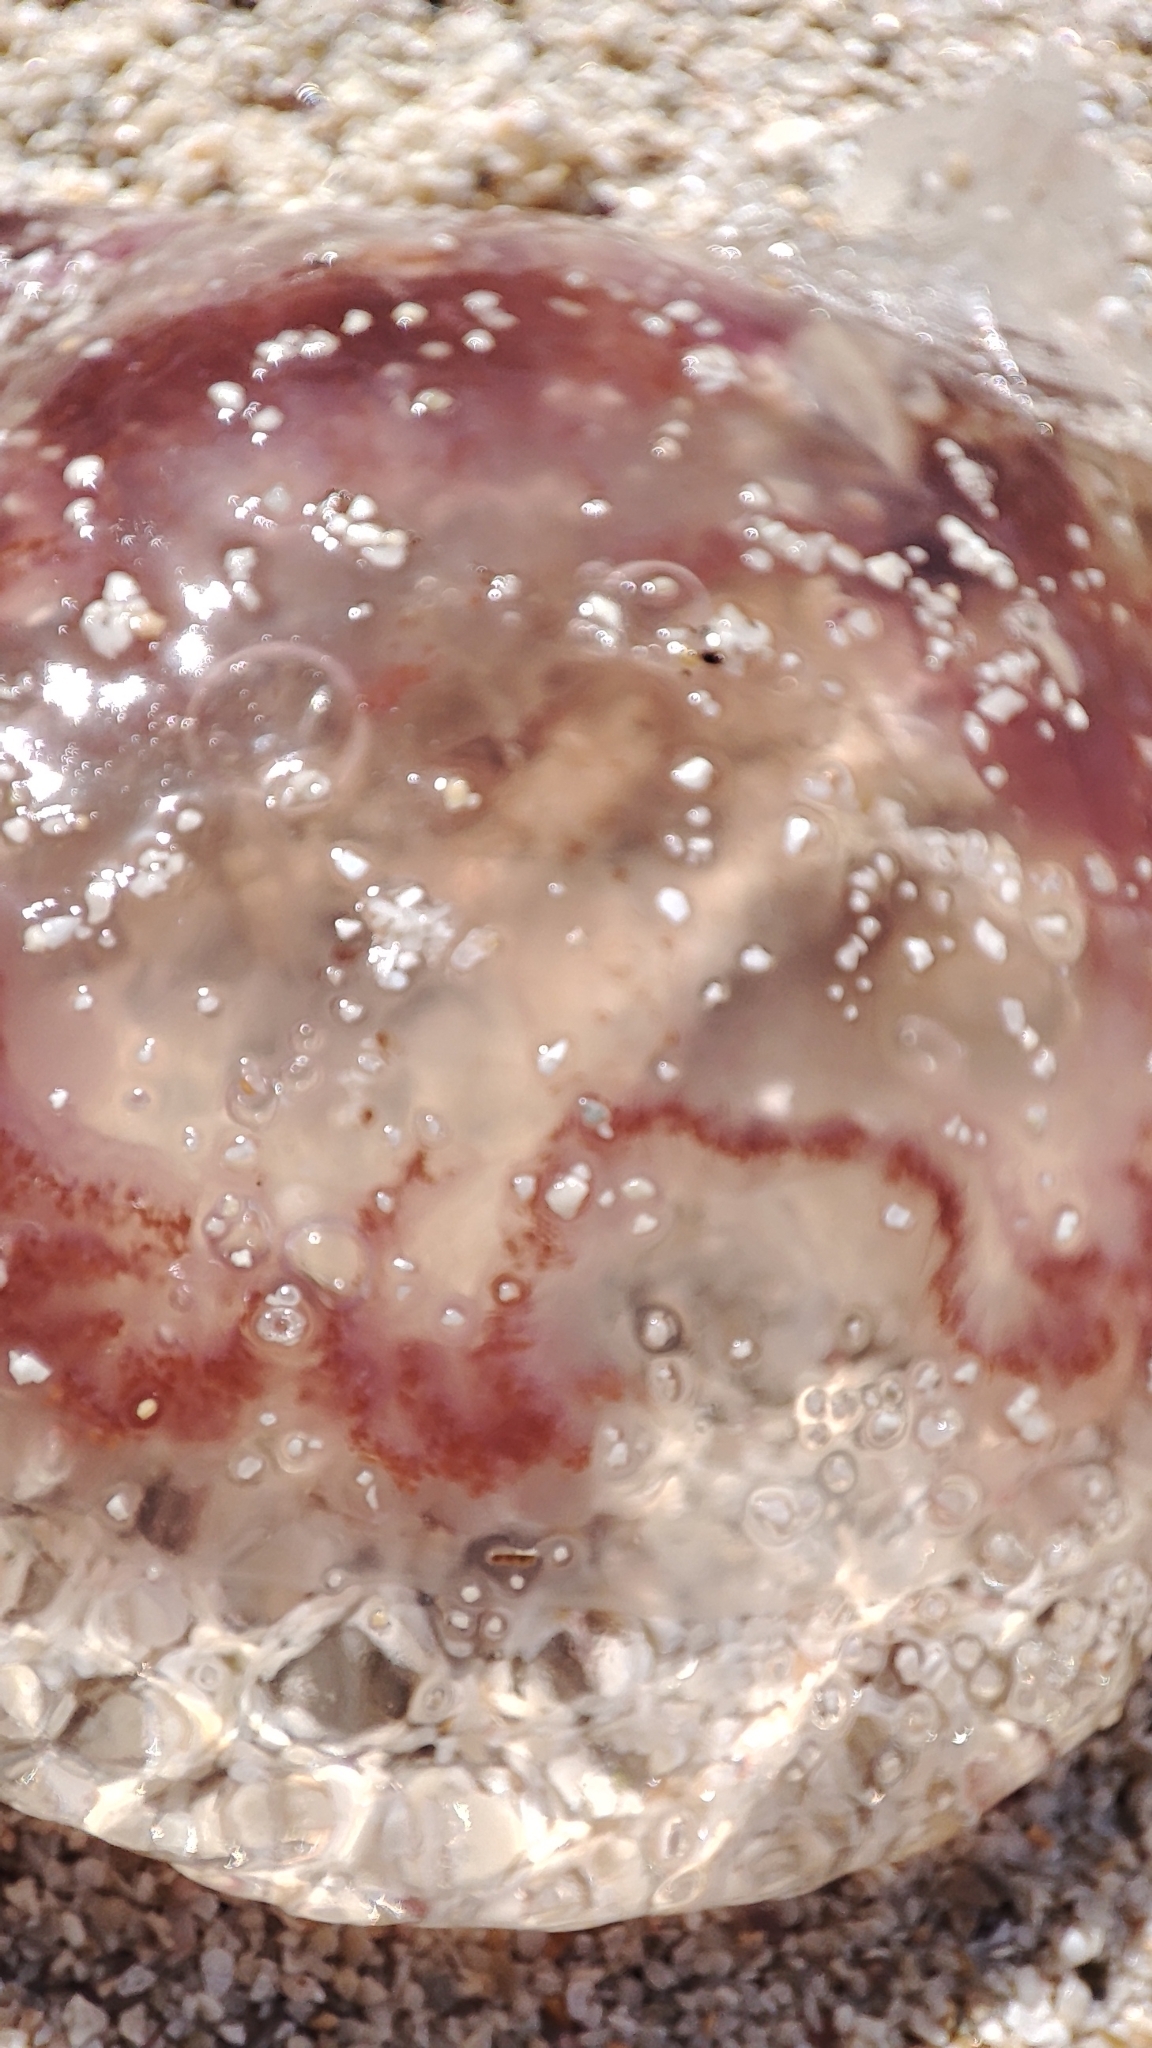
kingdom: Animalia
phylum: Cnidaria
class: Scyphozoa
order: Semaeostomeae
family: Pelagiidae
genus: Pelagia
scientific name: Pelagia noctiluca
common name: Mauve stinger
